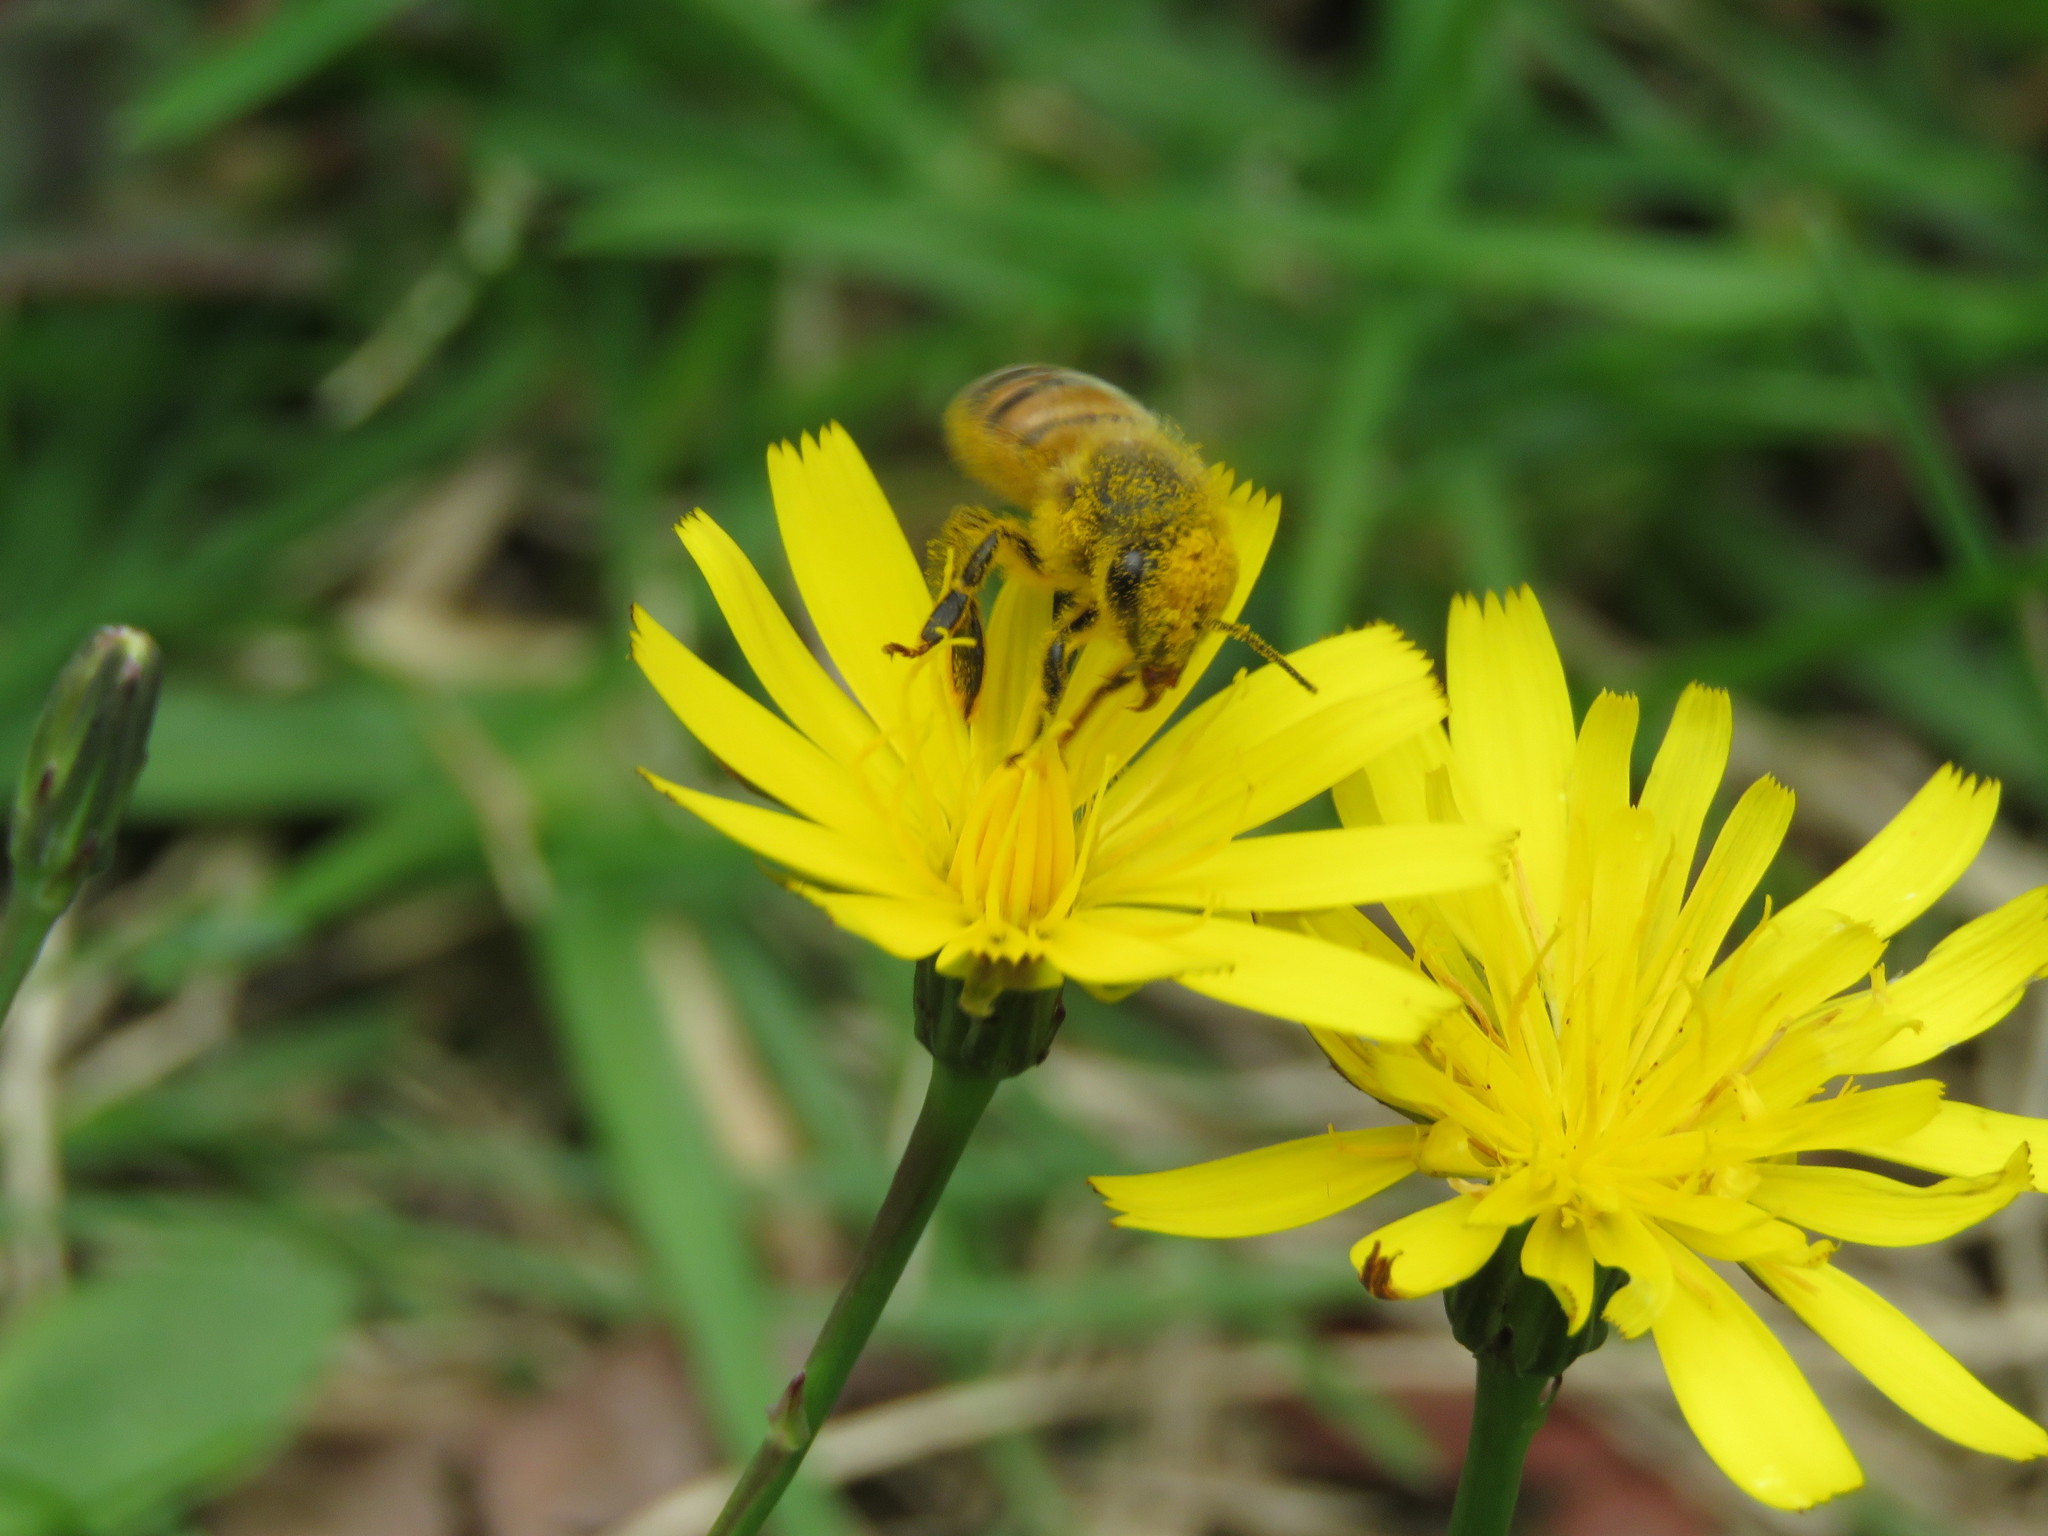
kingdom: Animalia
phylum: Arthropoda
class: Insecta
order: Hymenoptera
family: Apidae
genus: Apis
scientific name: Apis mellifera
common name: Honey bee
